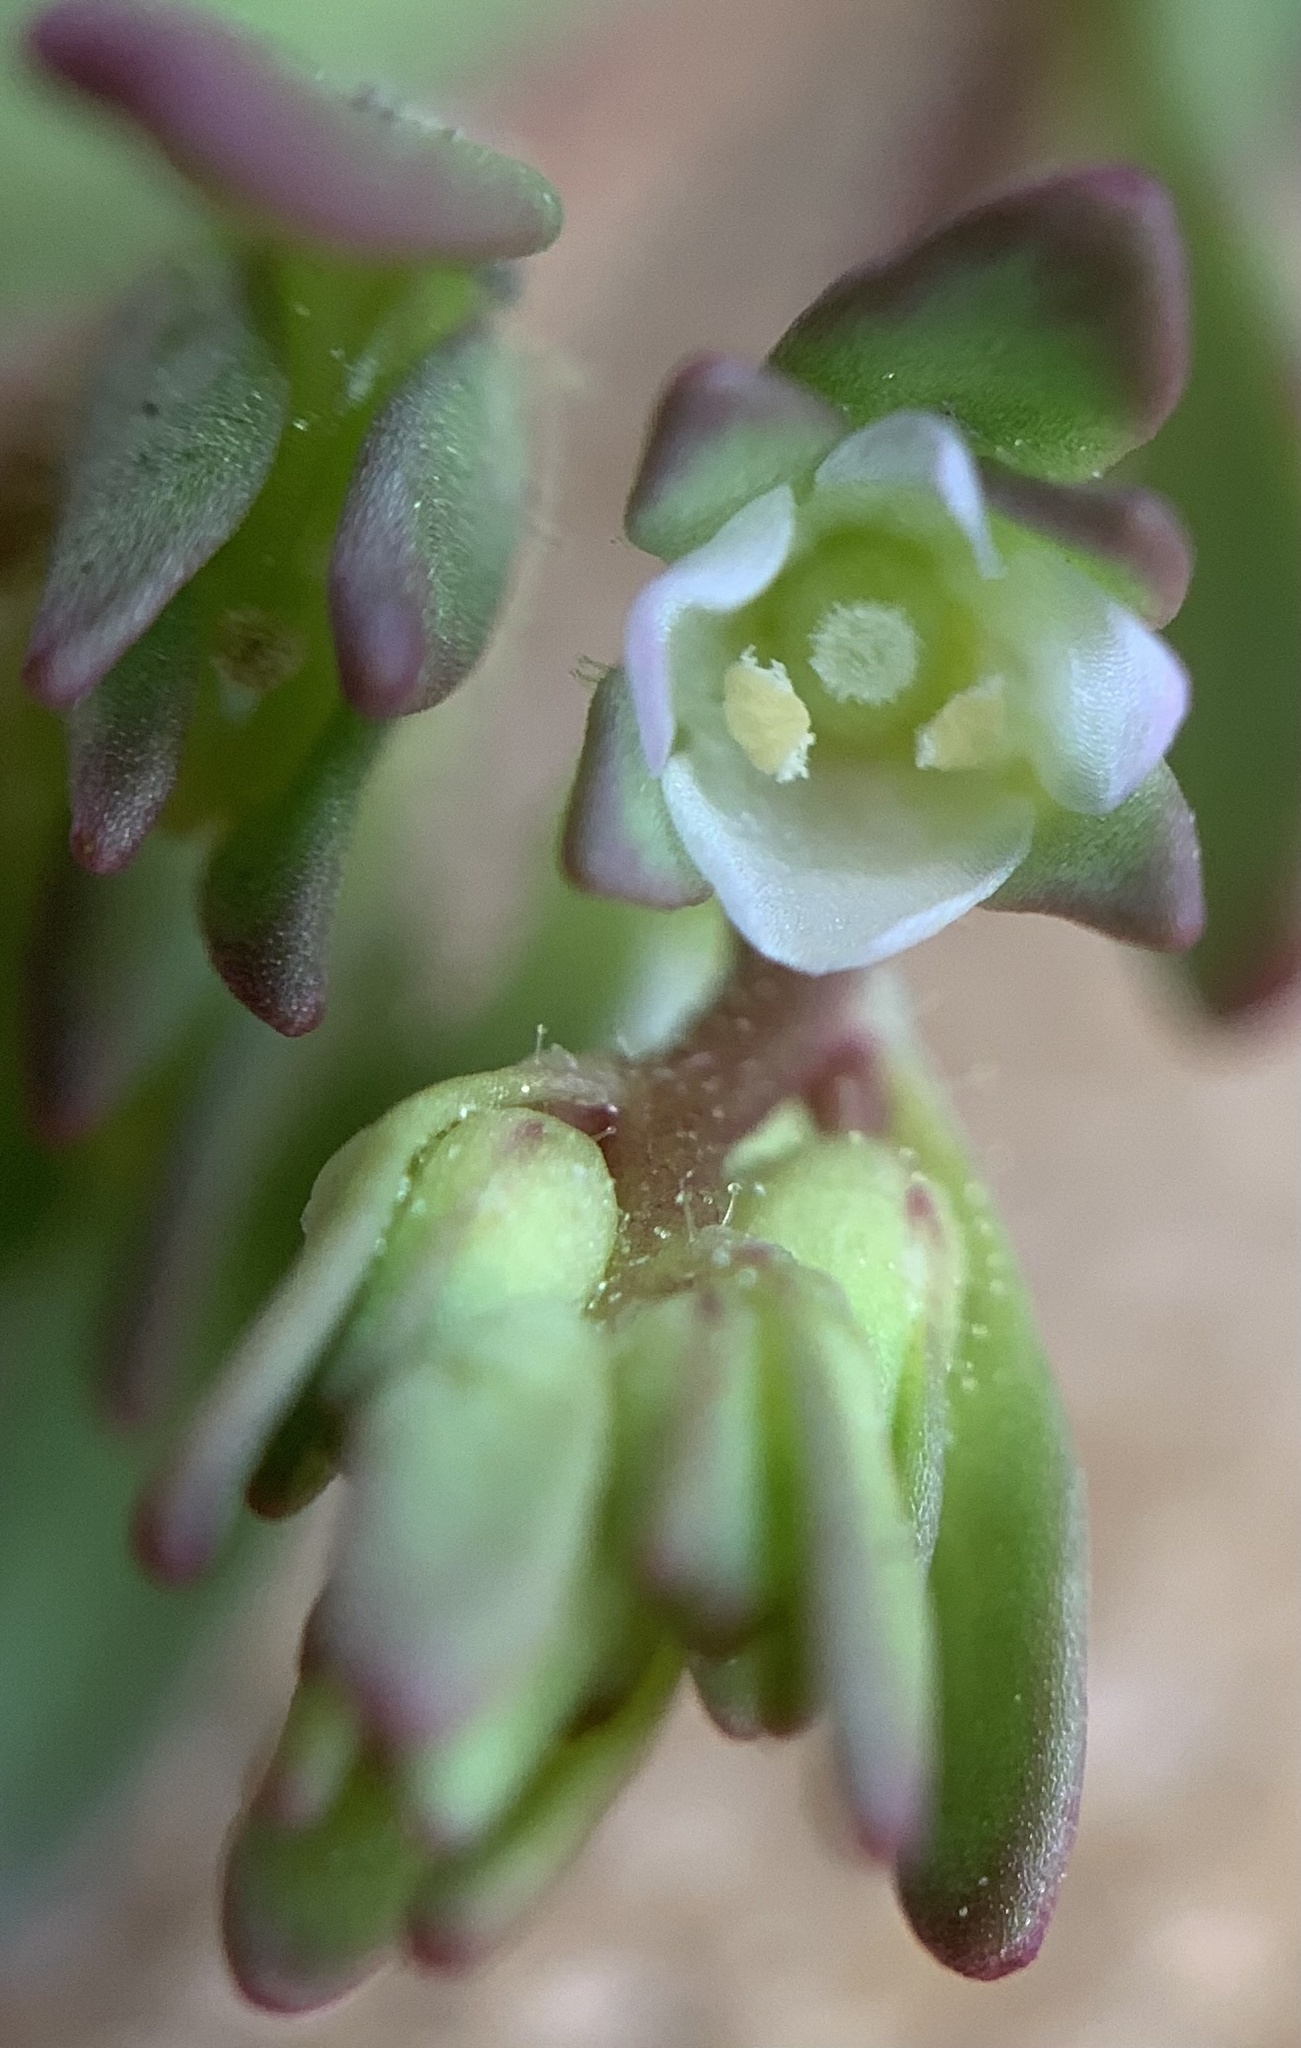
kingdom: Plantae
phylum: Tracheophyta
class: Magnoliopsida
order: Lamiales
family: Plantaginaceae
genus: Veronica
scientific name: Veronica peregrina
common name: Neckweed
